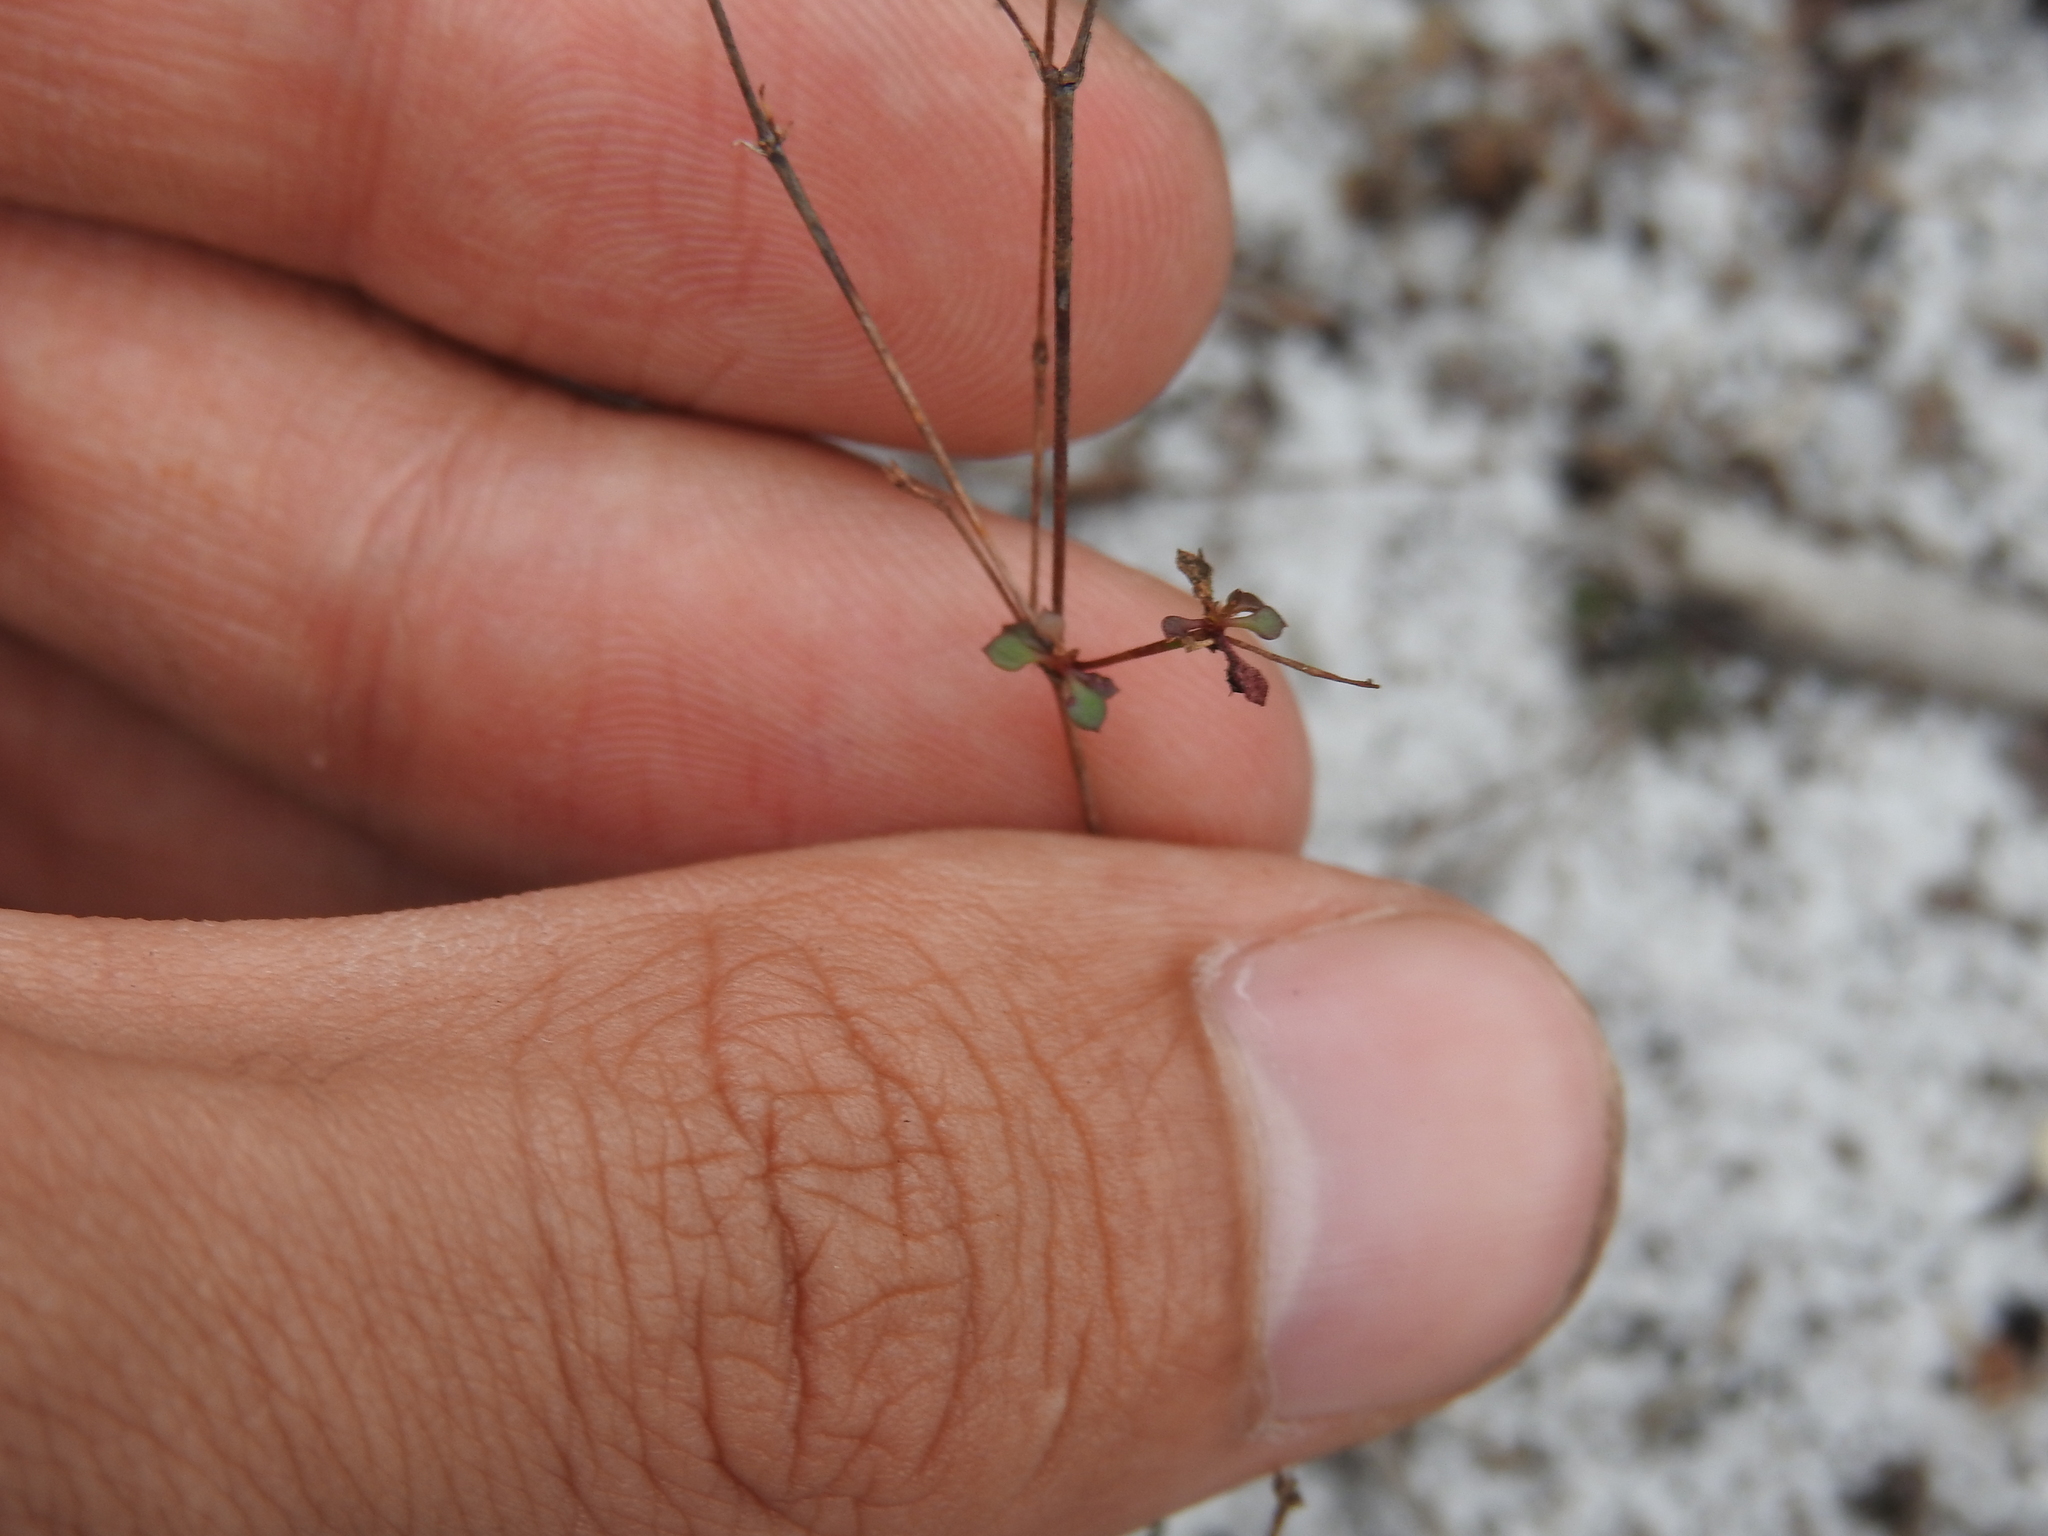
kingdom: Plantae
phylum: Tracheophyta
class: Magnoliopsida
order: Caryophyllales
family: Caryophyllaceae
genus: Stipulicida
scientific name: Stipulicida setacea
